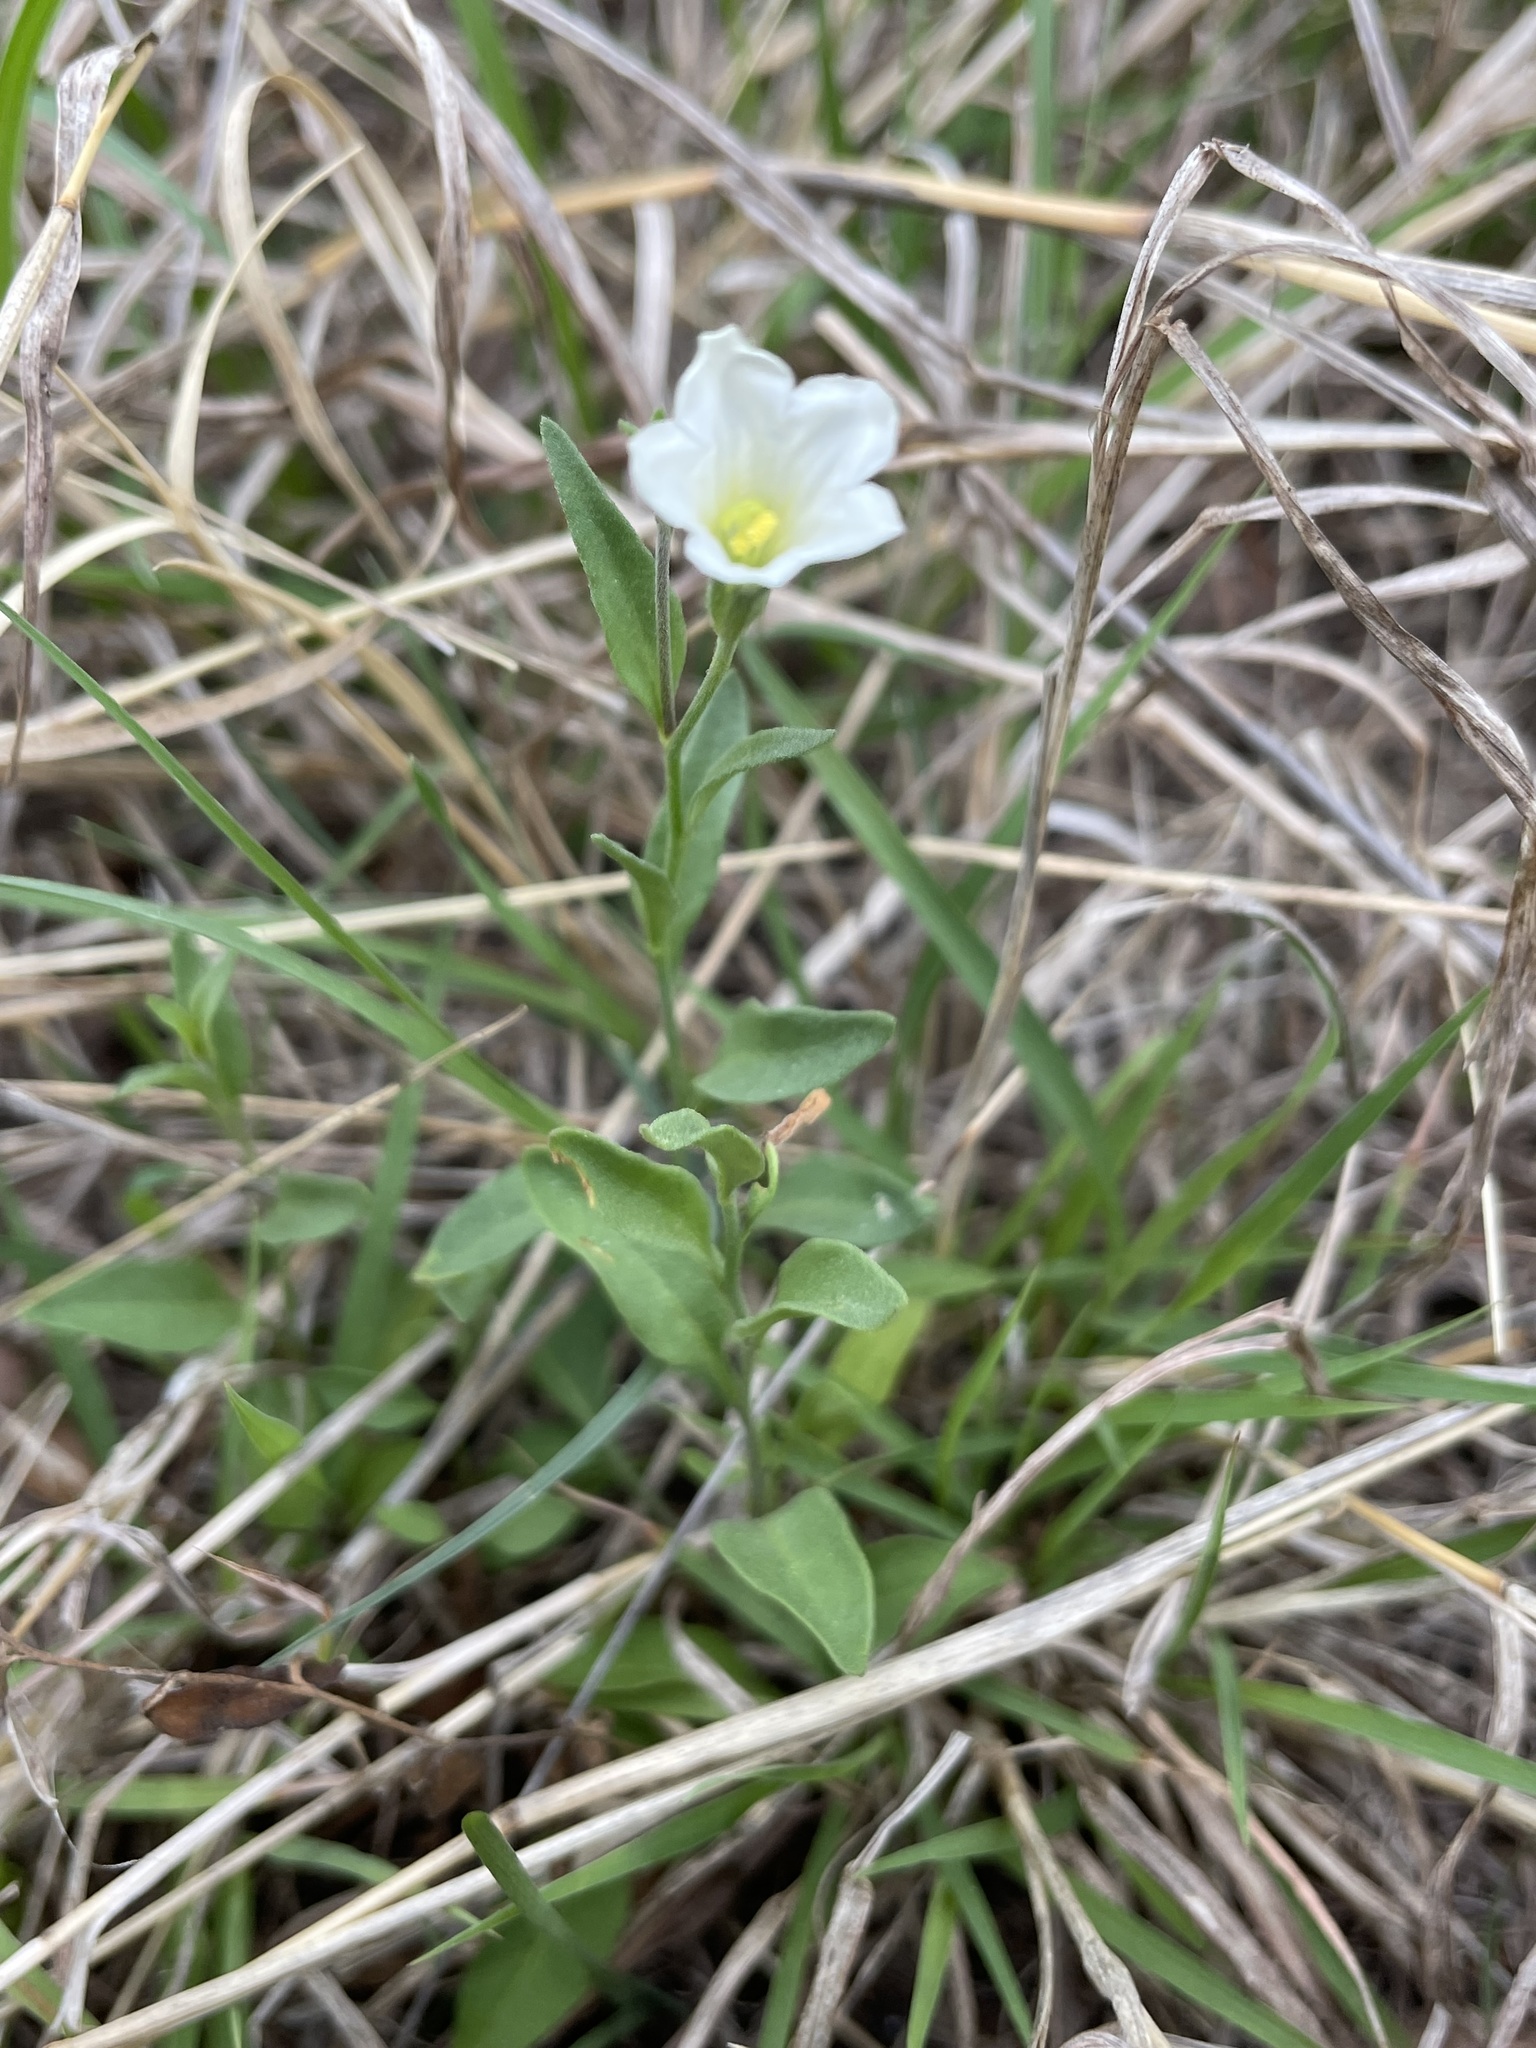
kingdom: Plantae
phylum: Tracheophyta
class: Magnoliopsida
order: Solanales
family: Solanaceae
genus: Salpiglossis
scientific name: Salpiglossis erecta
